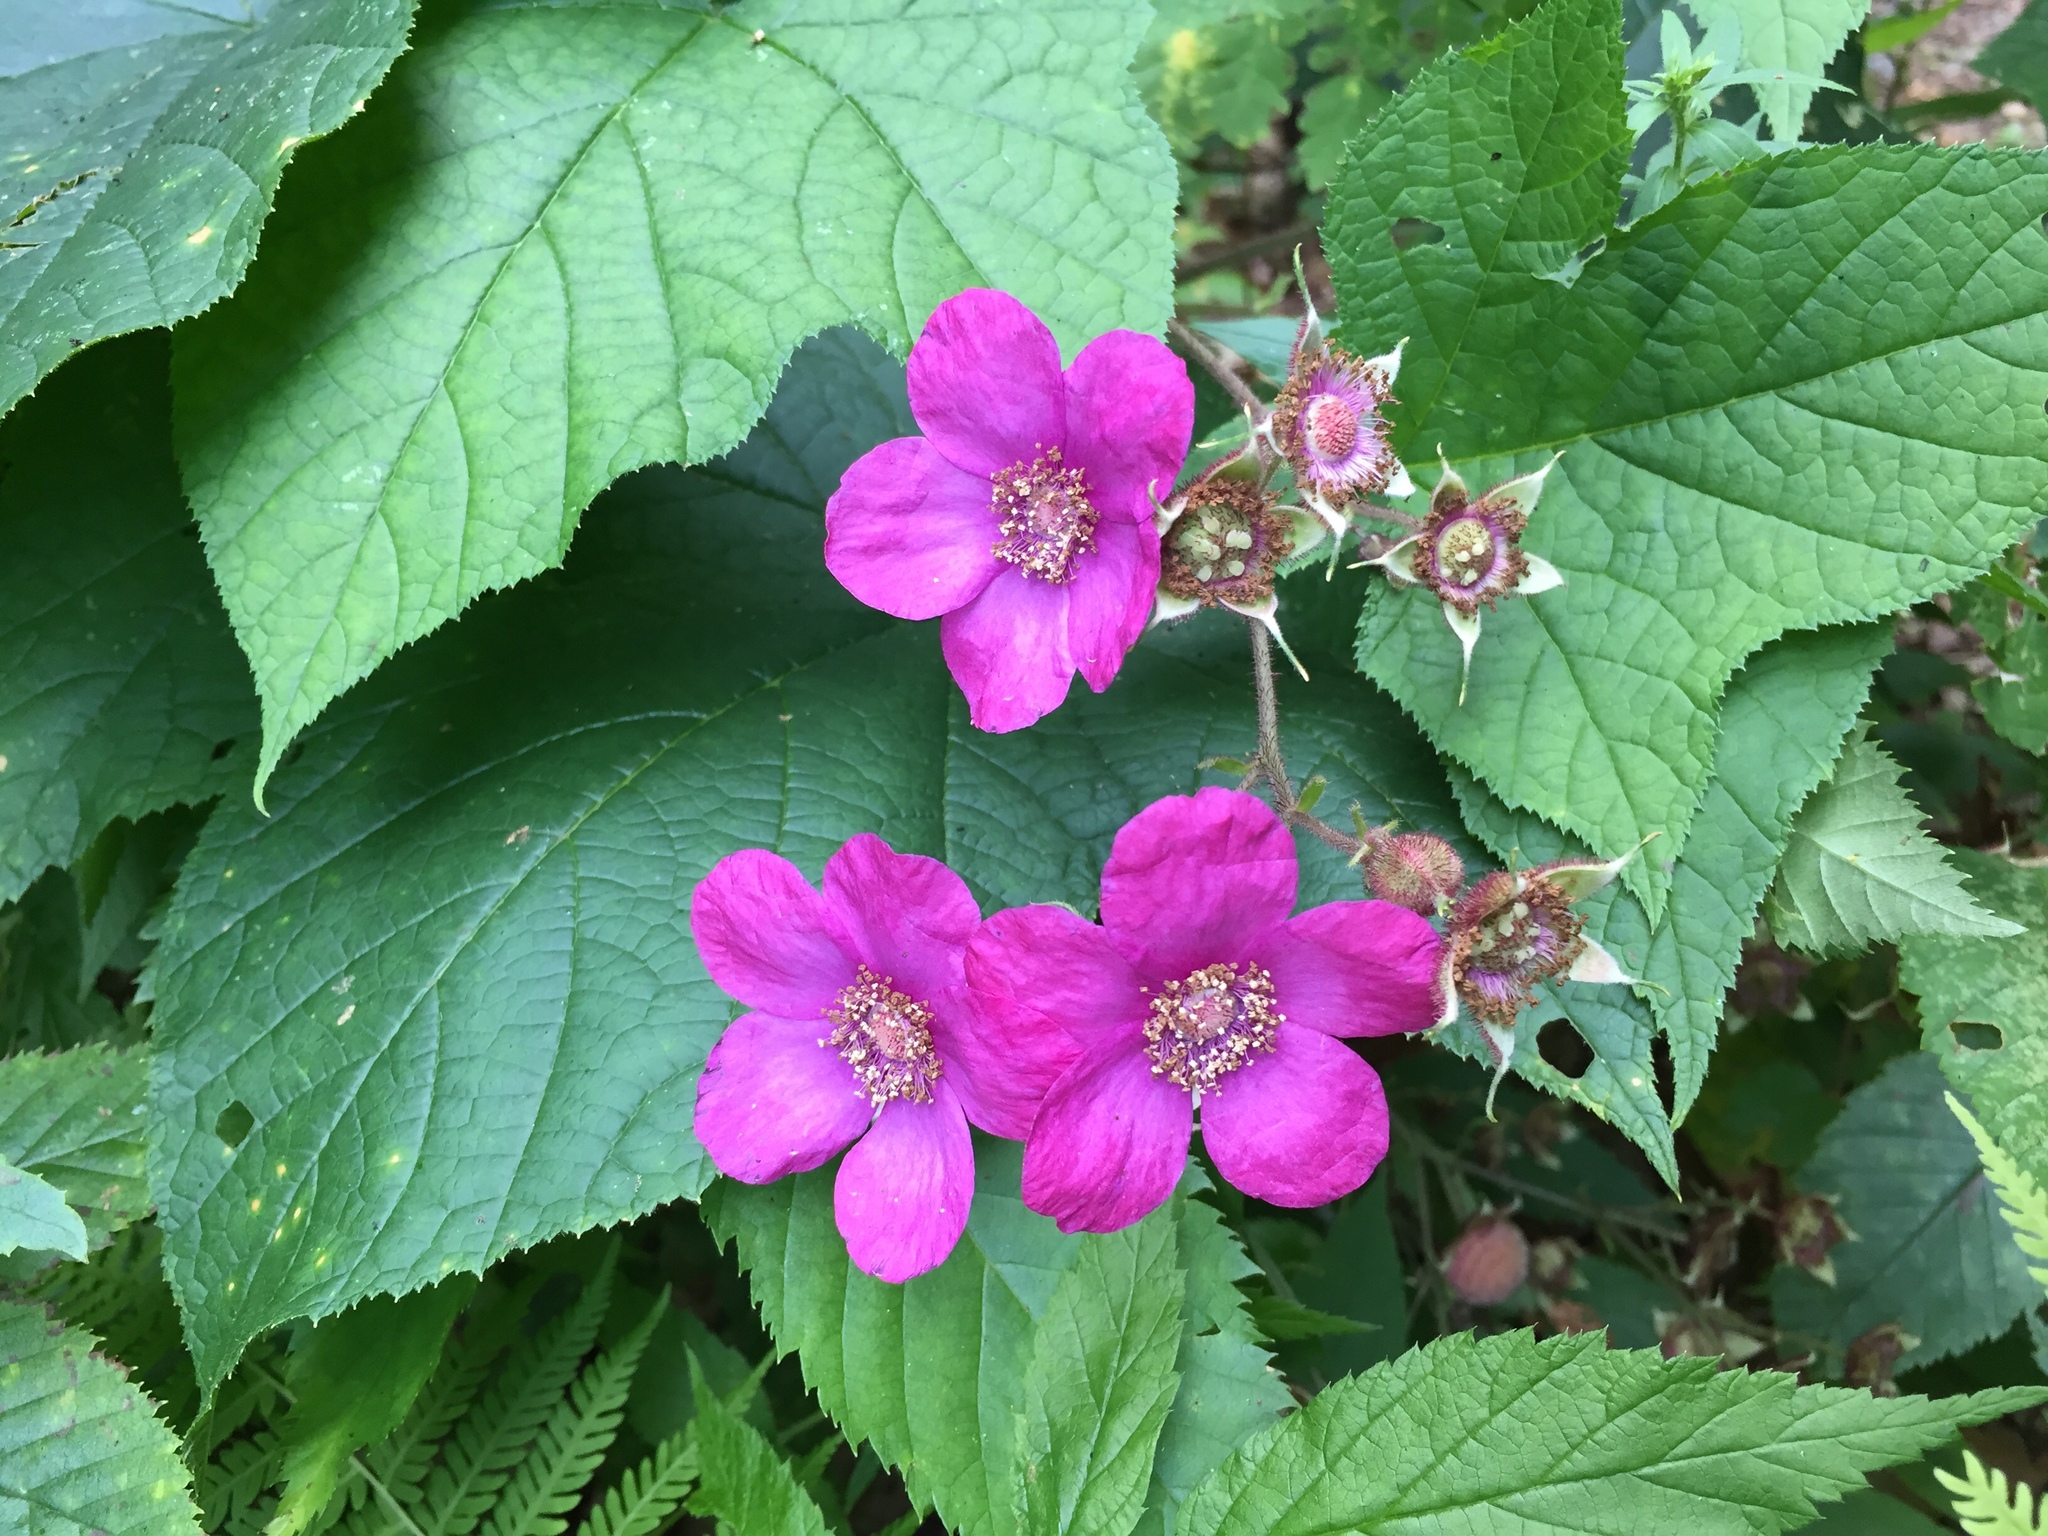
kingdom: Plantae
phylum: Tracheophyta
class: Magnoliopsida
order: Rosales
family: Rosaceae
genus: Rubus
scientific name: Rubus odoratus
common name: Purple-flowered raspberry
